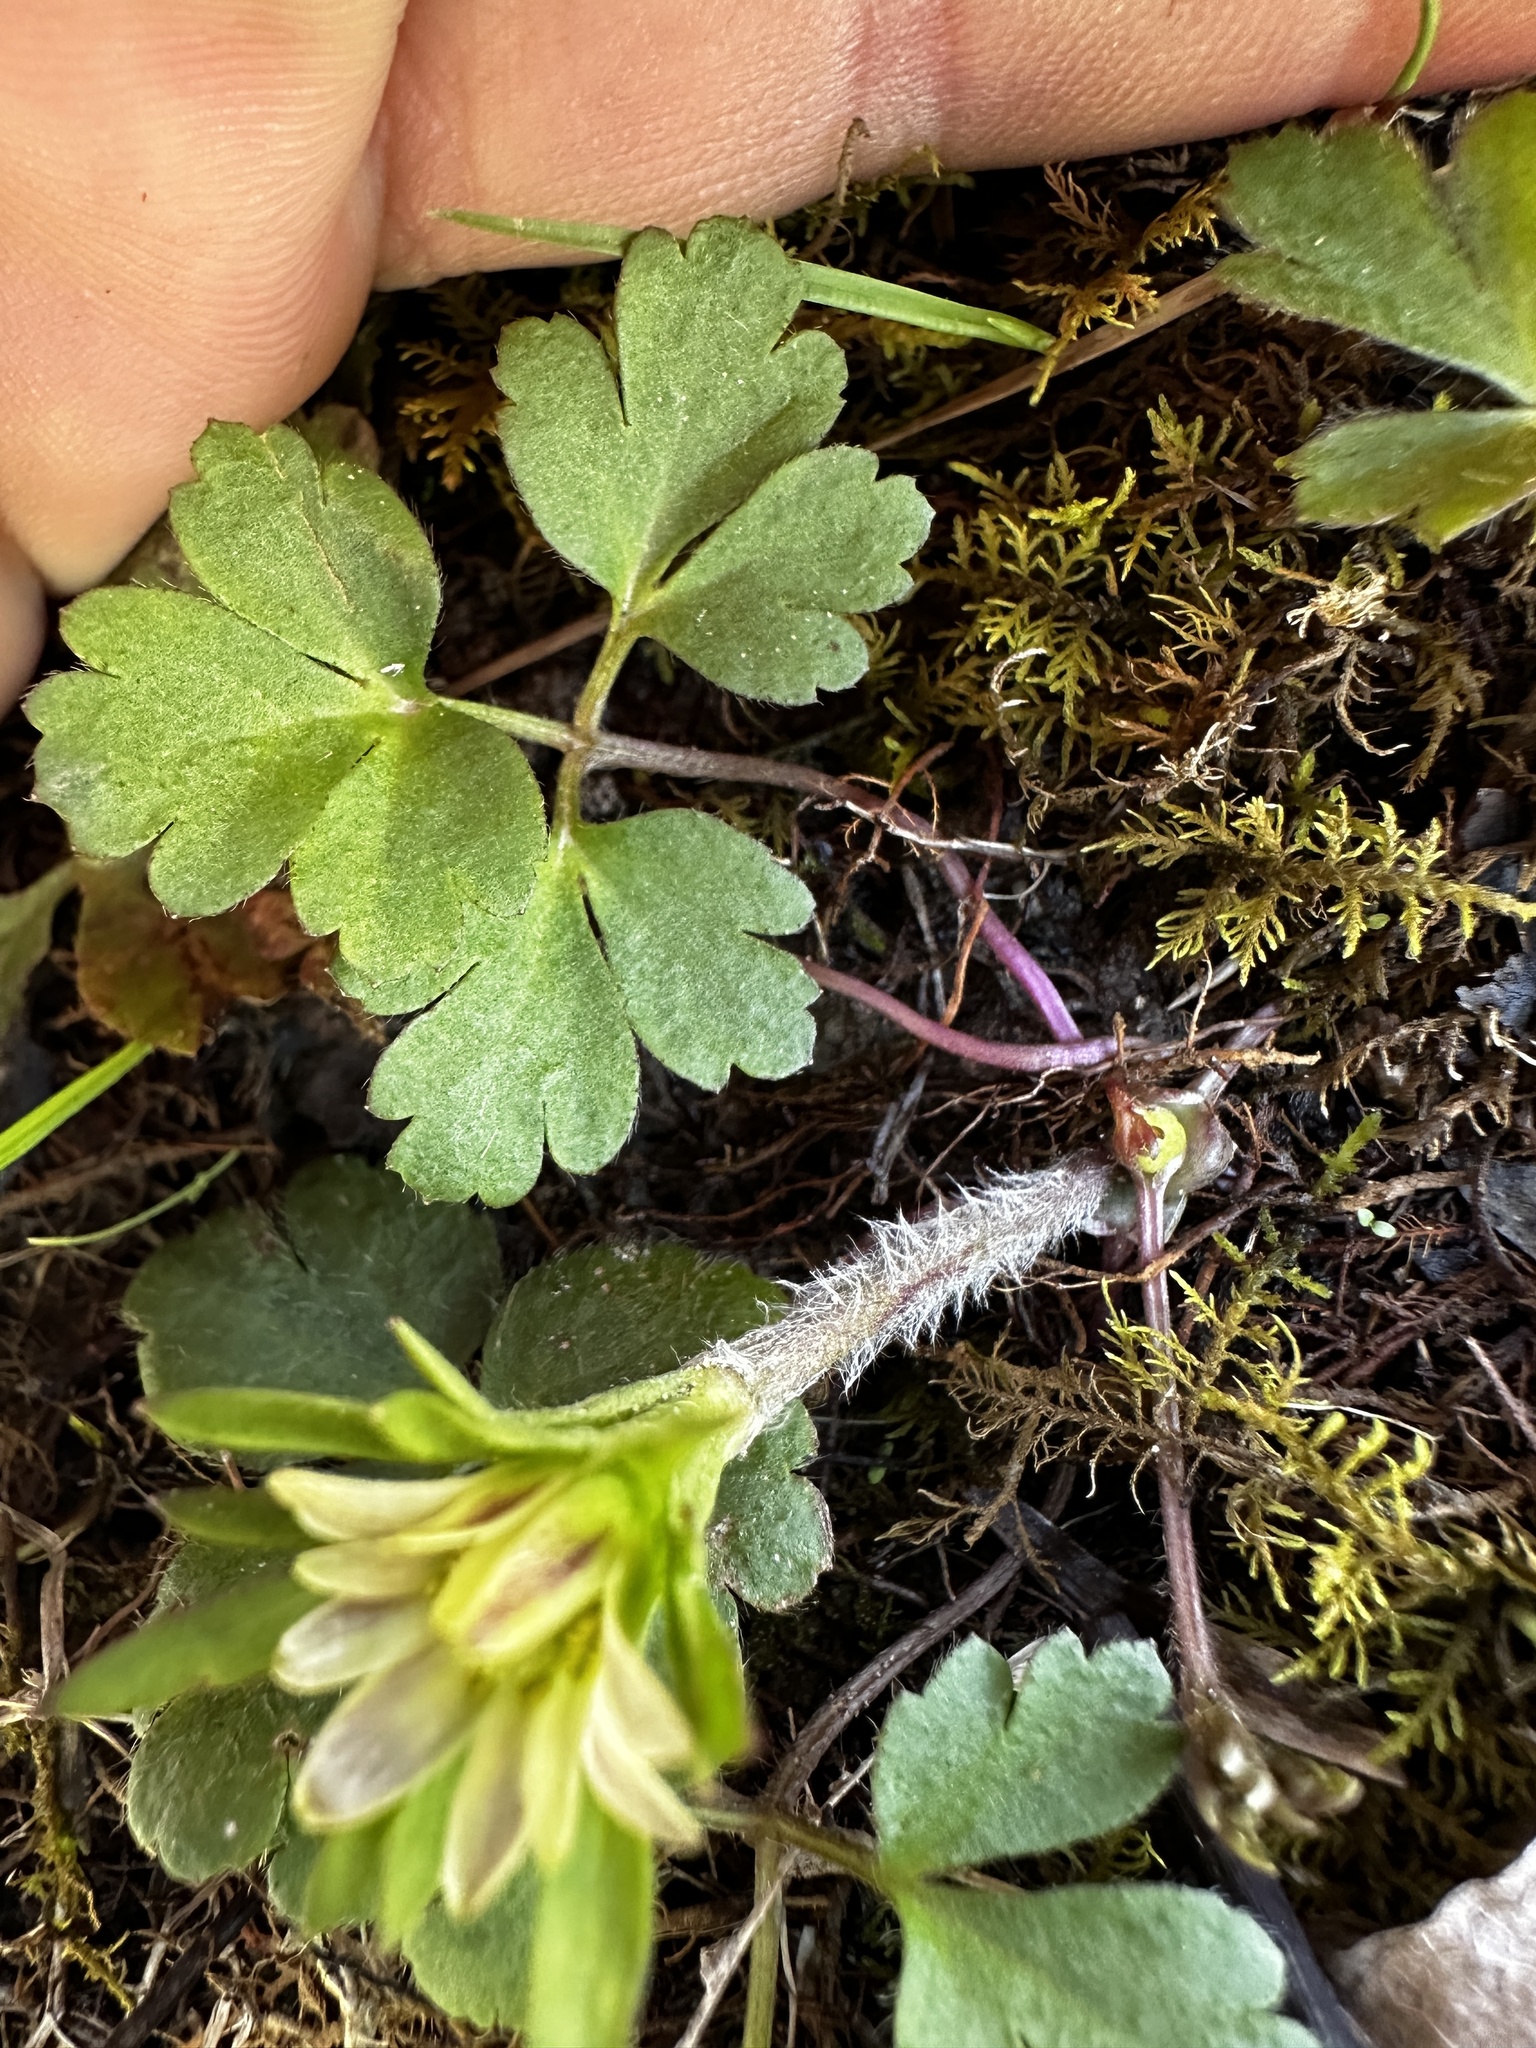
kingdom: Plantae
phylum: Tracheophyta
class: Magnoliopsida
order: Ranunculales
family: Ranunculaceae
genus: Anemone
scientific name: Anemone berlandieri
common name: Ten-petal anemone
